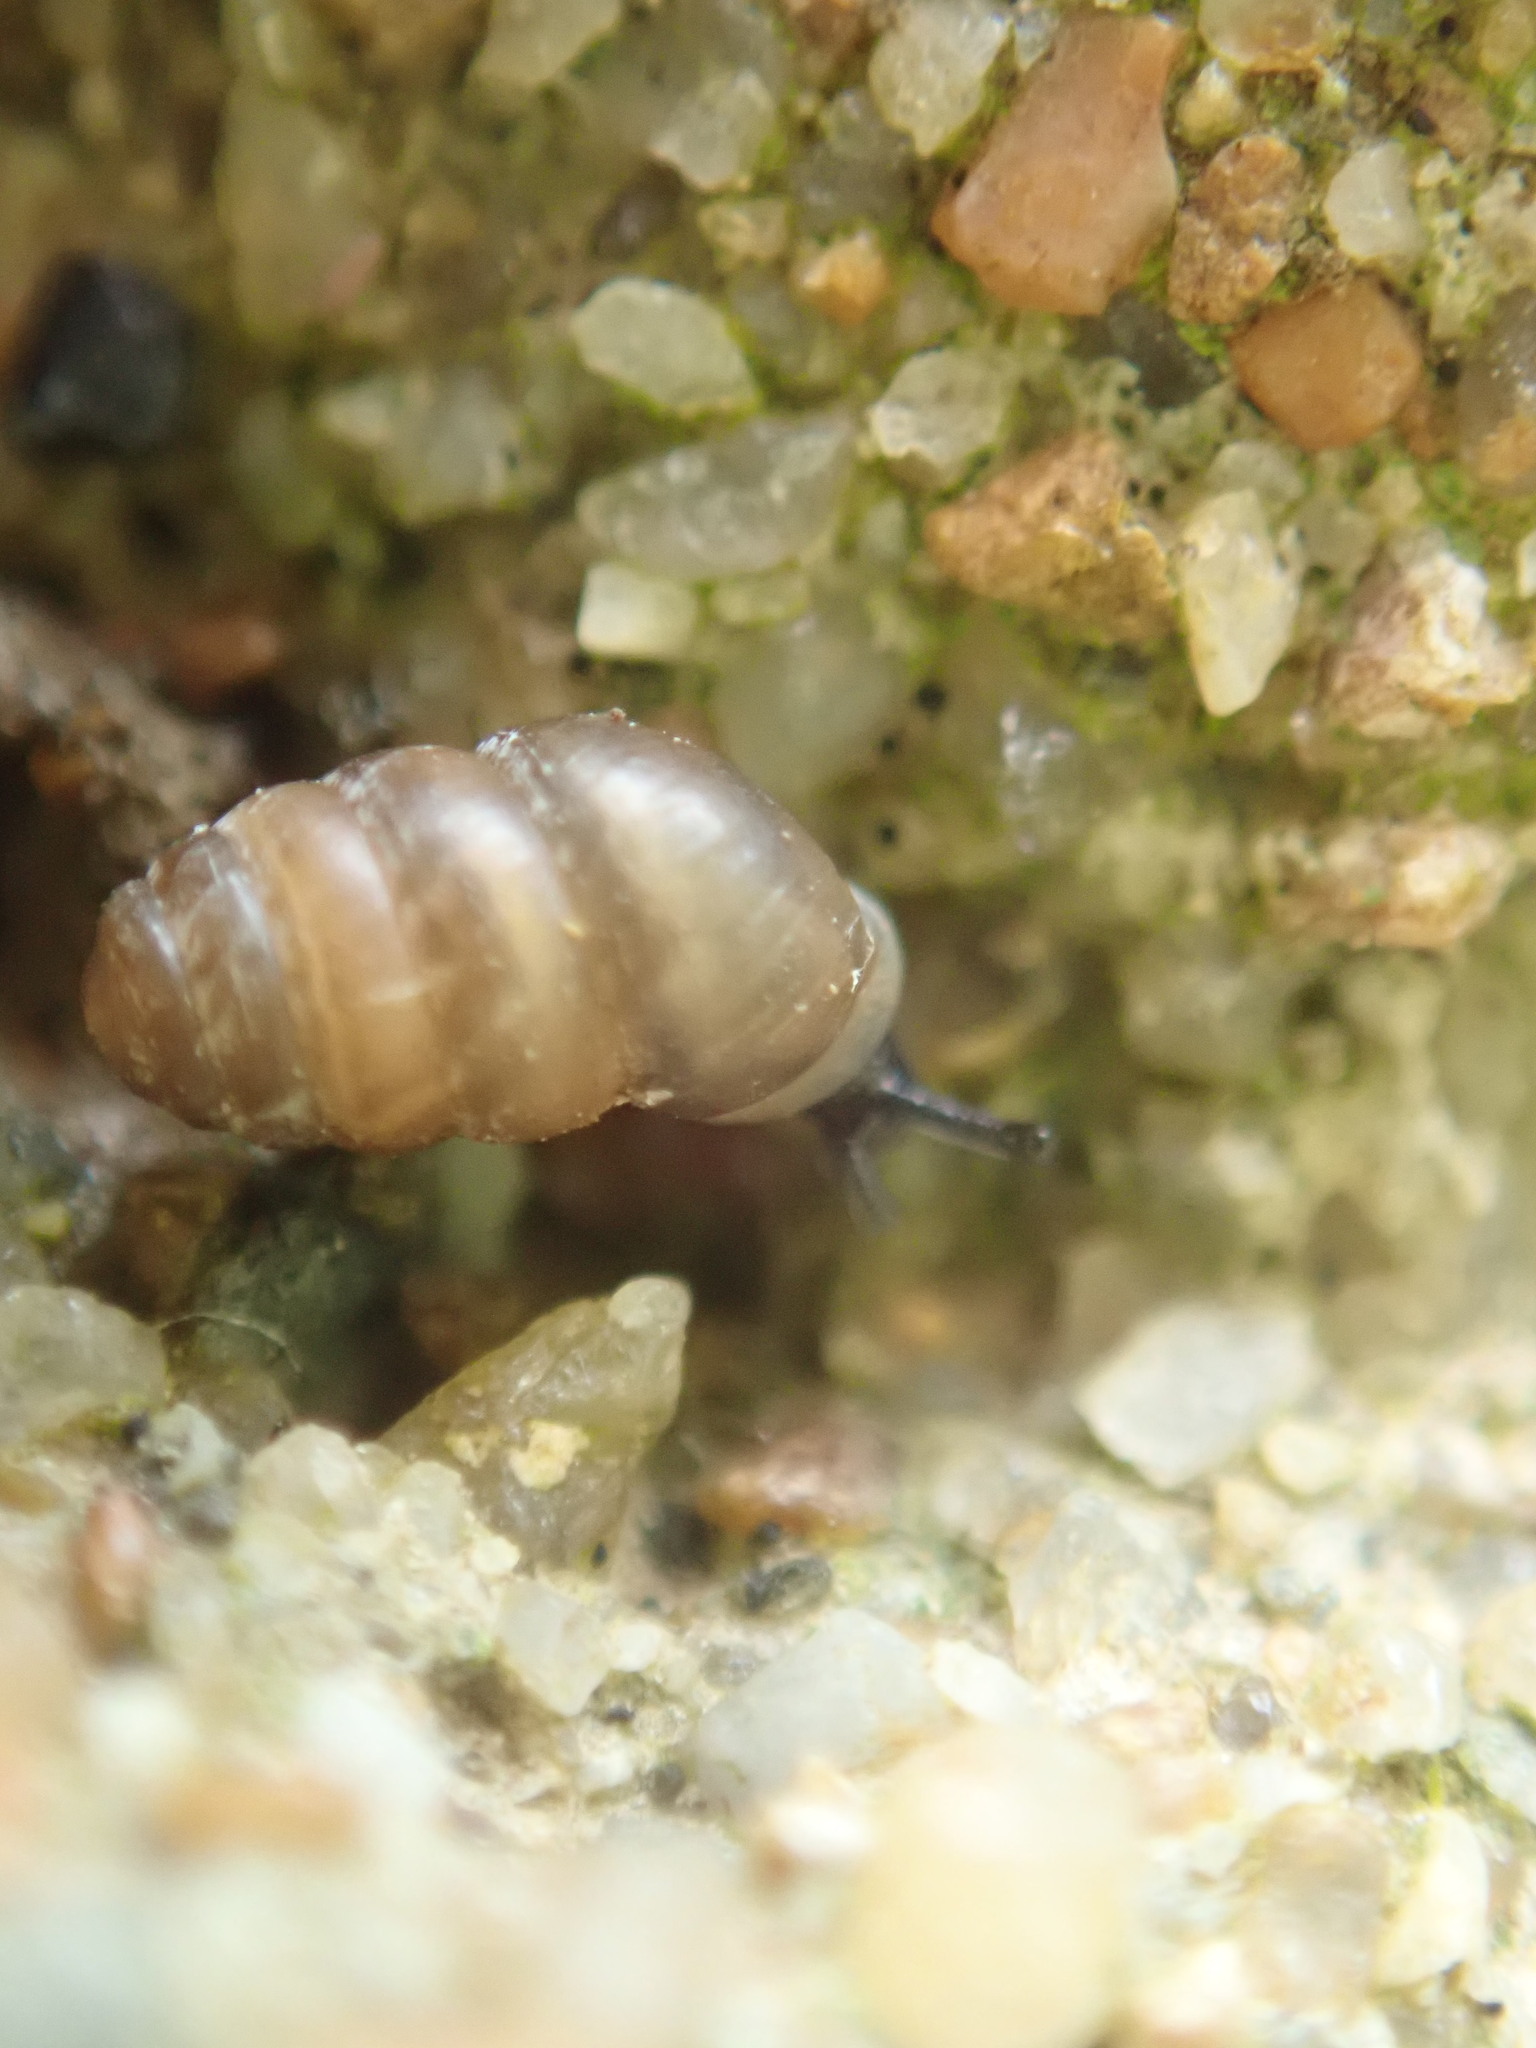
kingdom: Animalia
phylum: Mollusca
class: Gastropoda
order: Stylommatophora
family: Lauriidae
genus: Lauria
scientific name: Lauria cylindracea
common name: Common chrysalis snail
